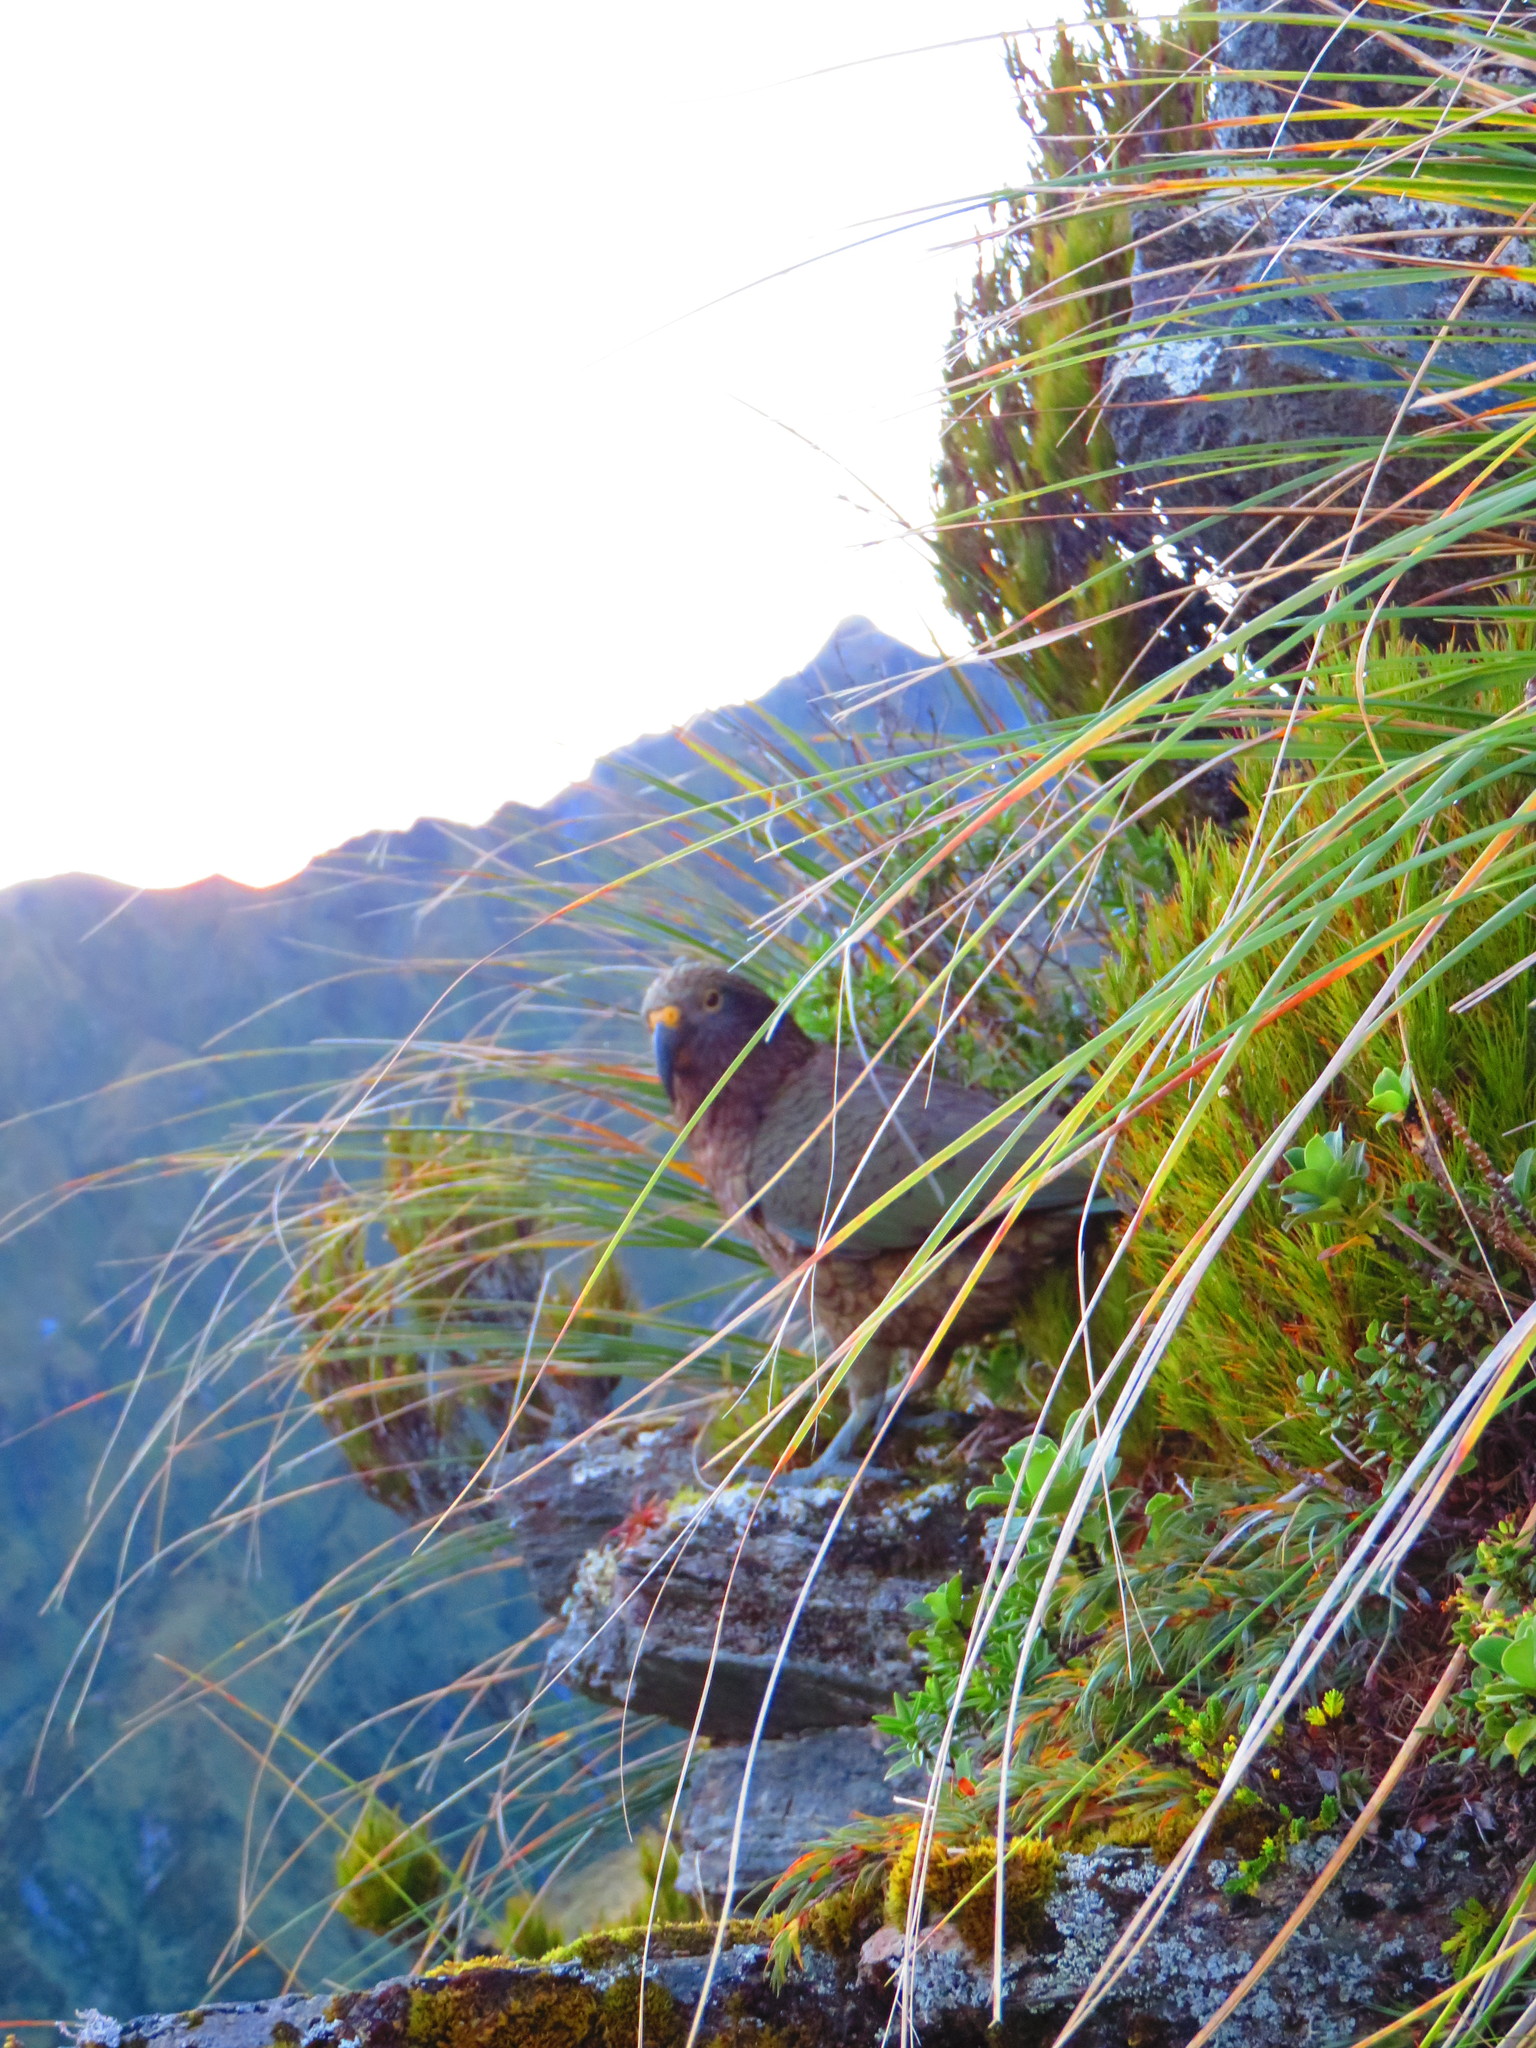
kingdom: Animalia
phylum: Chordata
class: Aves
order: Psittaciformes
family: Psittacidae
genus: Nestor
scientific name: Nestor notabilis
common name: Kea
